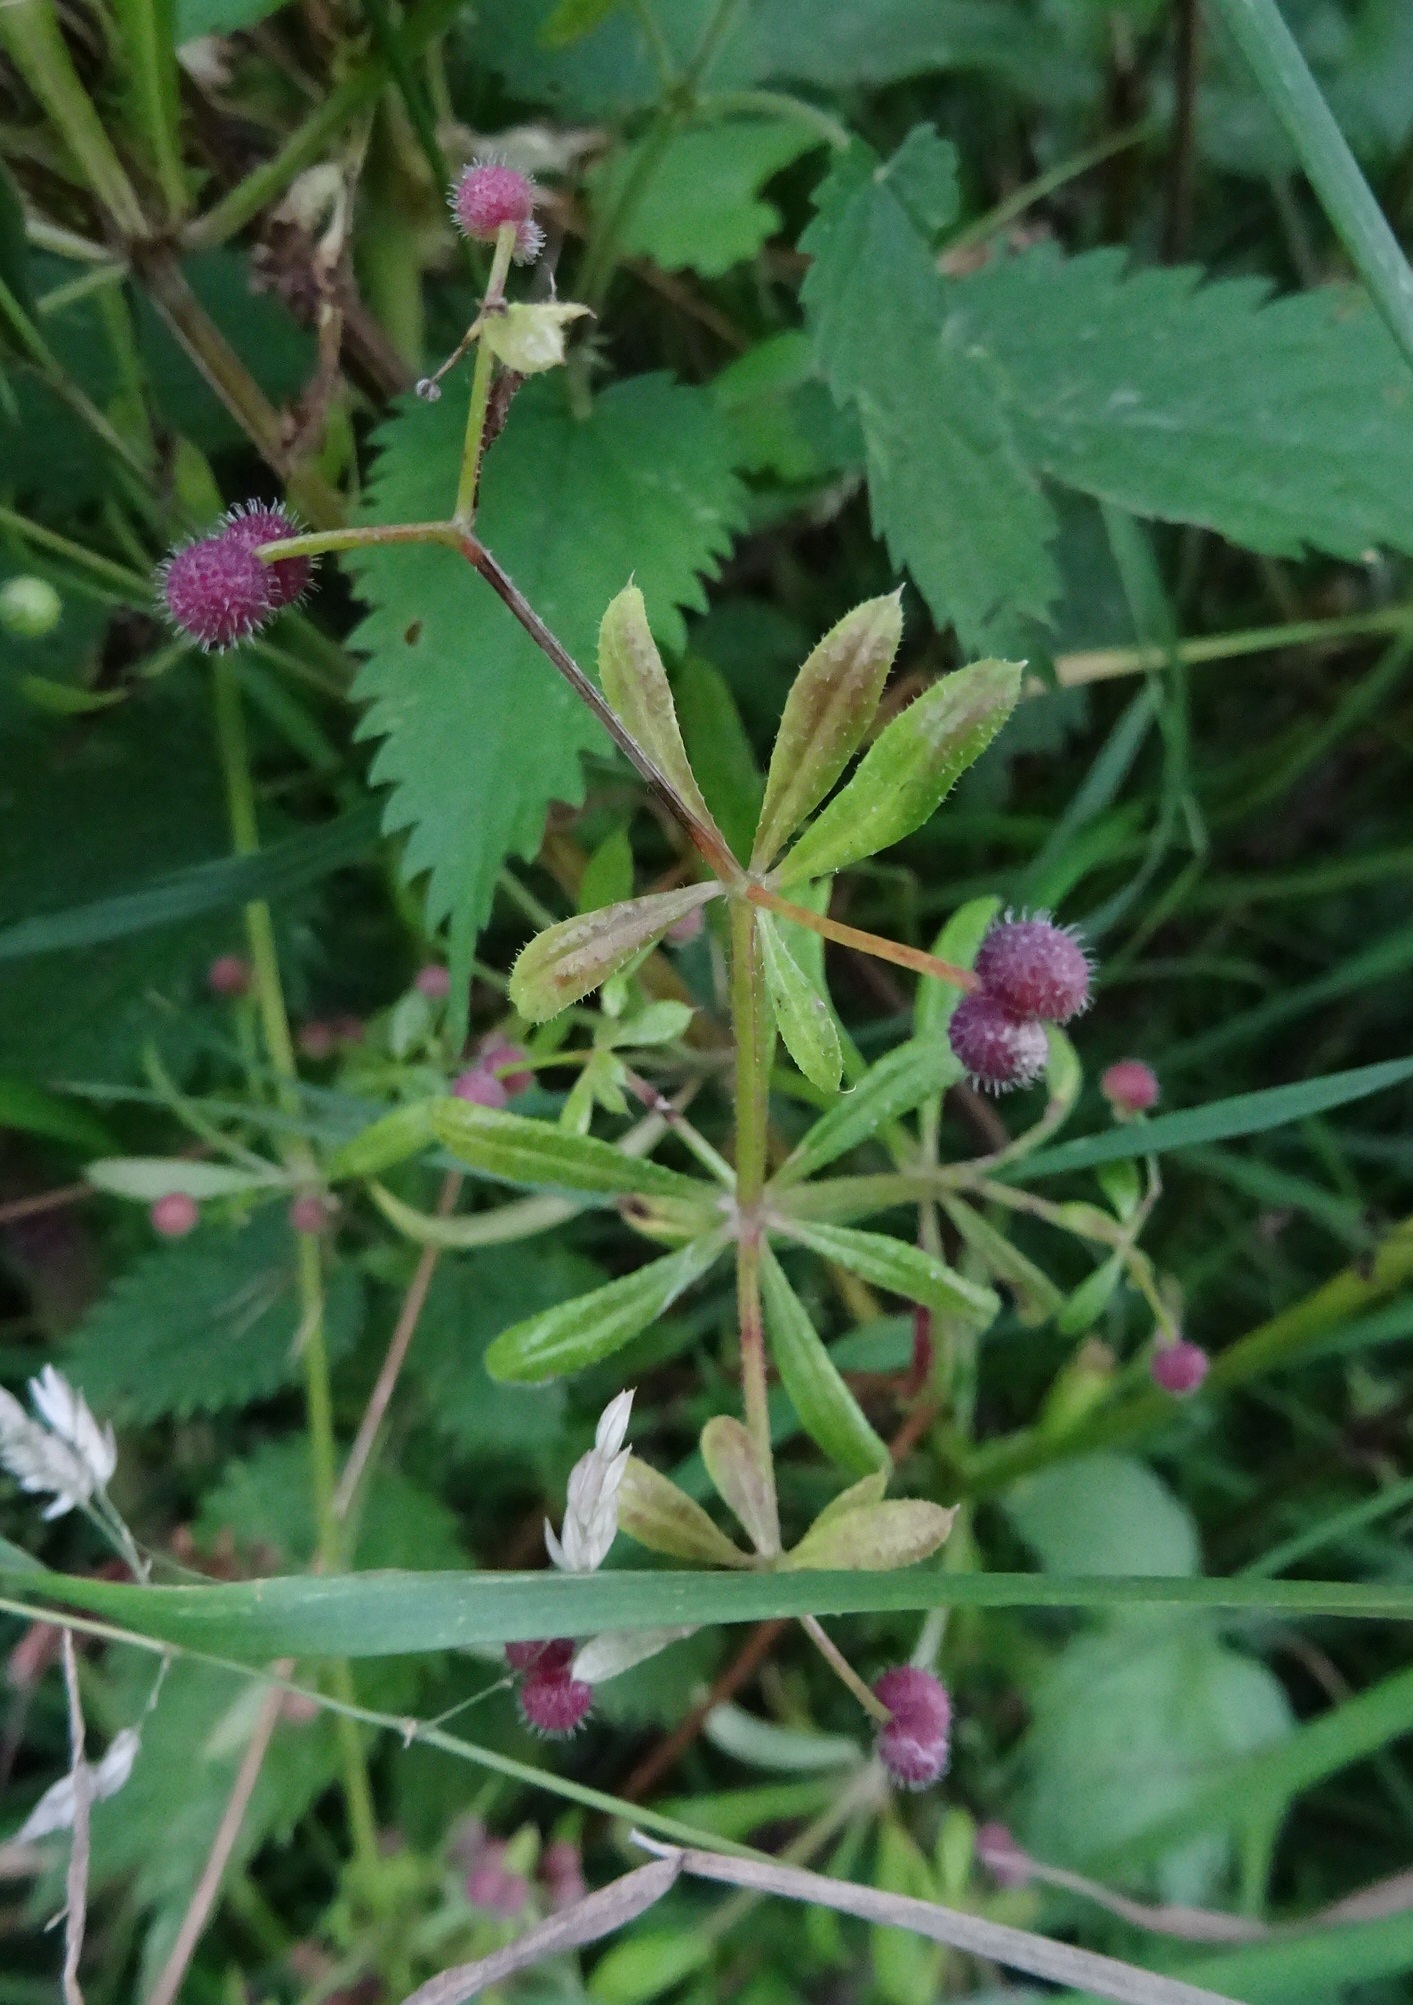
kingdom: Plantae
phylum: Tracheophyta
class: Magnoliopsida
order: Gentianales
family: Rubiaceae
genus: Galium
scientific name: Galium aparine
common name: Cleavers
